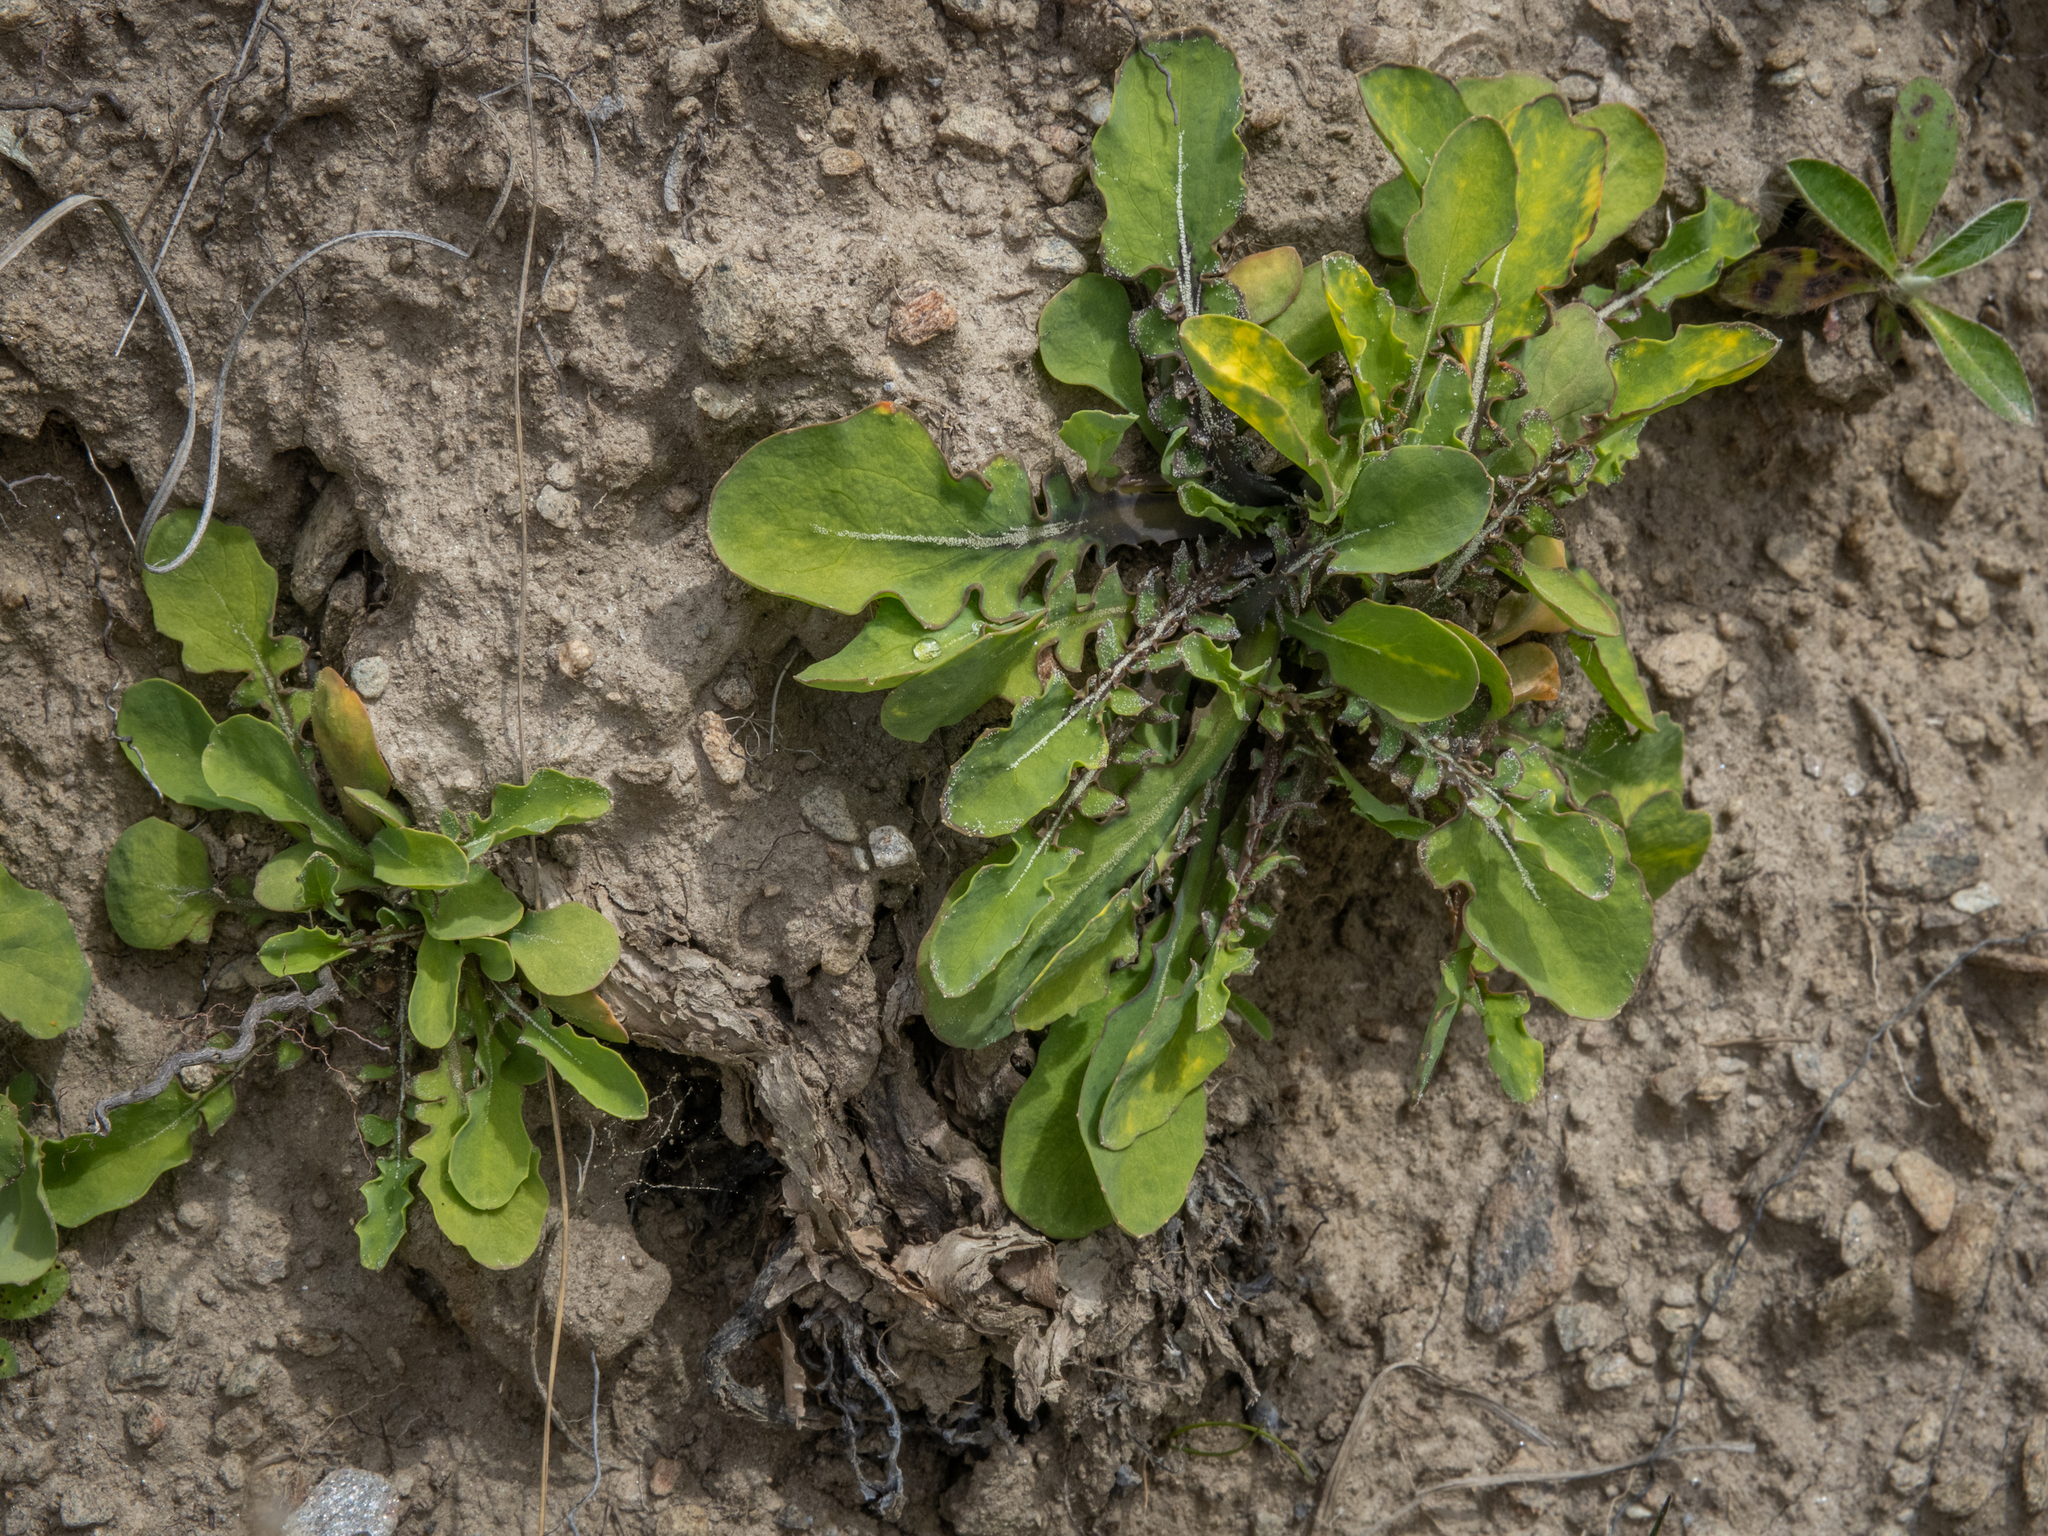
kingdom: Plantae
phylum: Tracheophyta
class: Magnoliopsida
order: Asterales
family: Asteraceae
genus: Sonchus
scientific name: Sonchus novae-zelandiae
